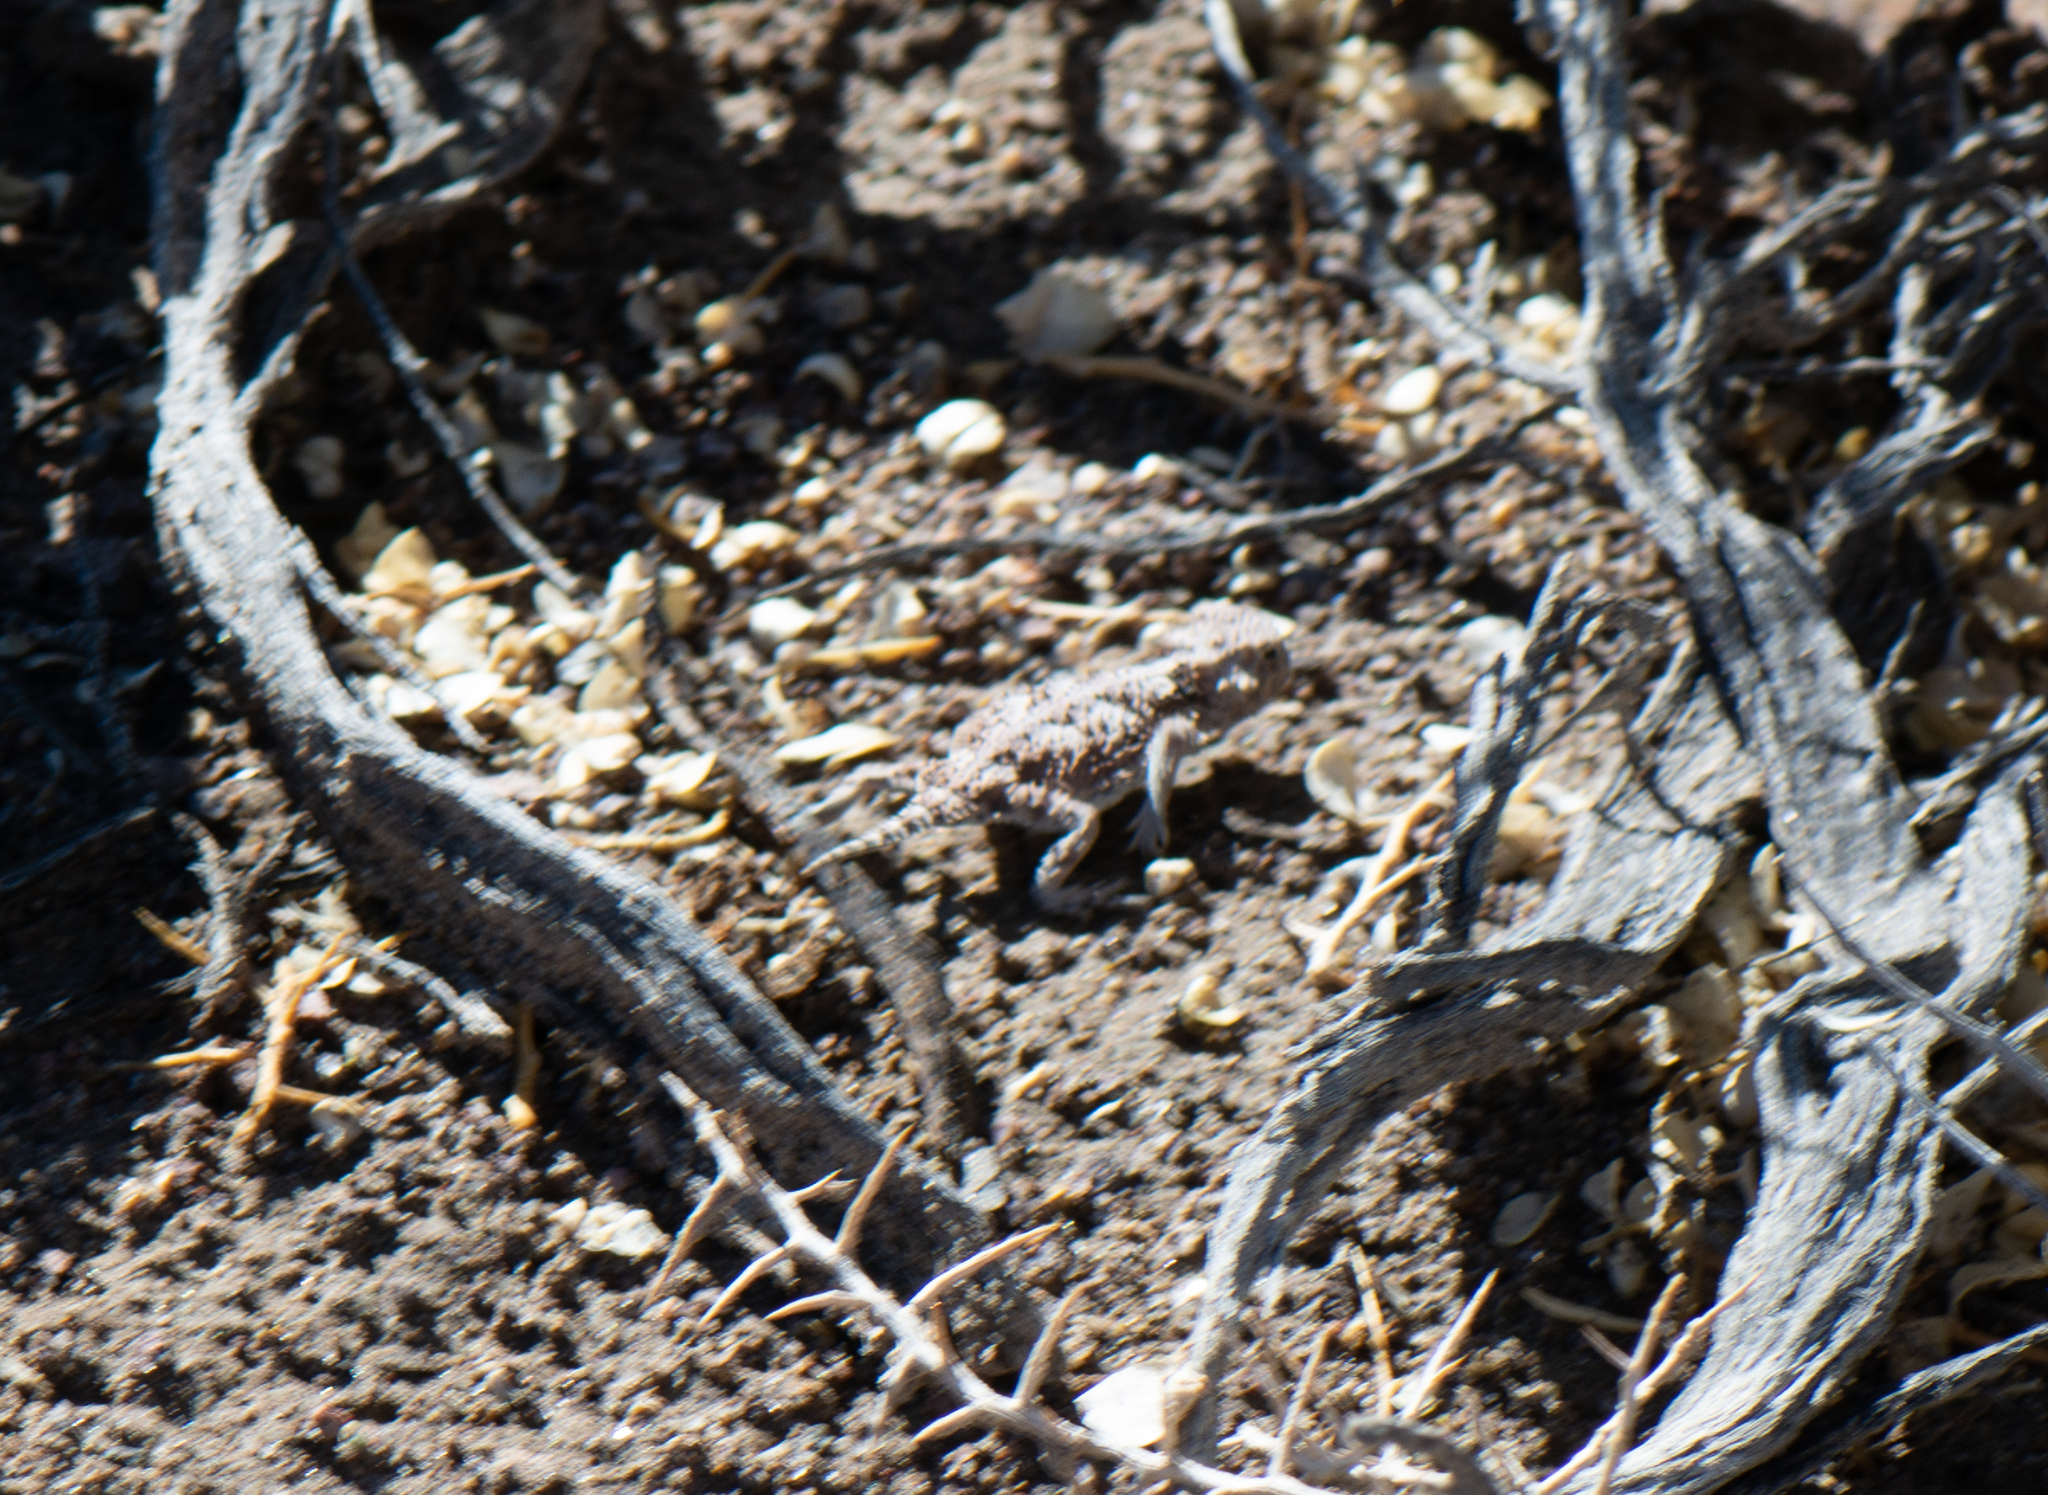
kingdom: Animalia
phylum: Chordata
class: Squamata
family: Phrynosomatidae
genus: Phrynosoma
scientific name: Phrynosoma platyrhinos
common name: Desert horned lizard
